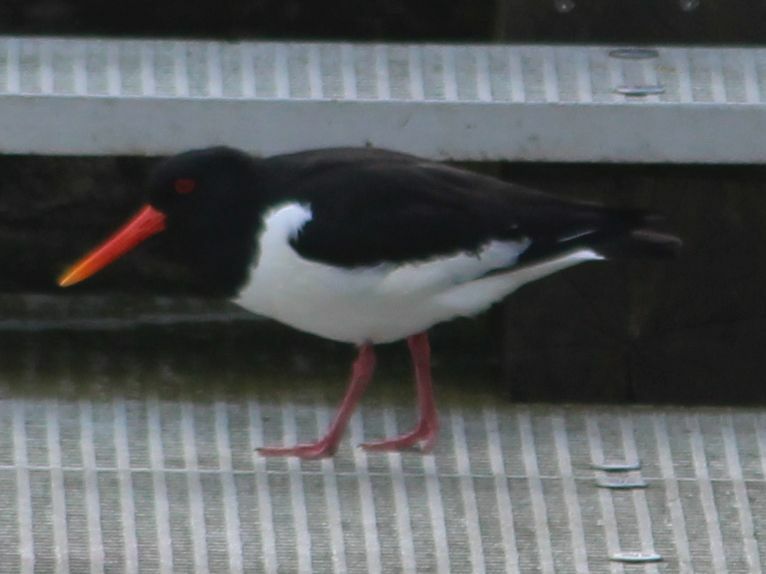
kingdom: Animalia
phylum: Chordata
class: Aves
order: Charadriiformes
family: Haematopodidae
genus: Haematopus
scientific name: Haematopus ostralegus
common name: Eurasian oystercatcher
